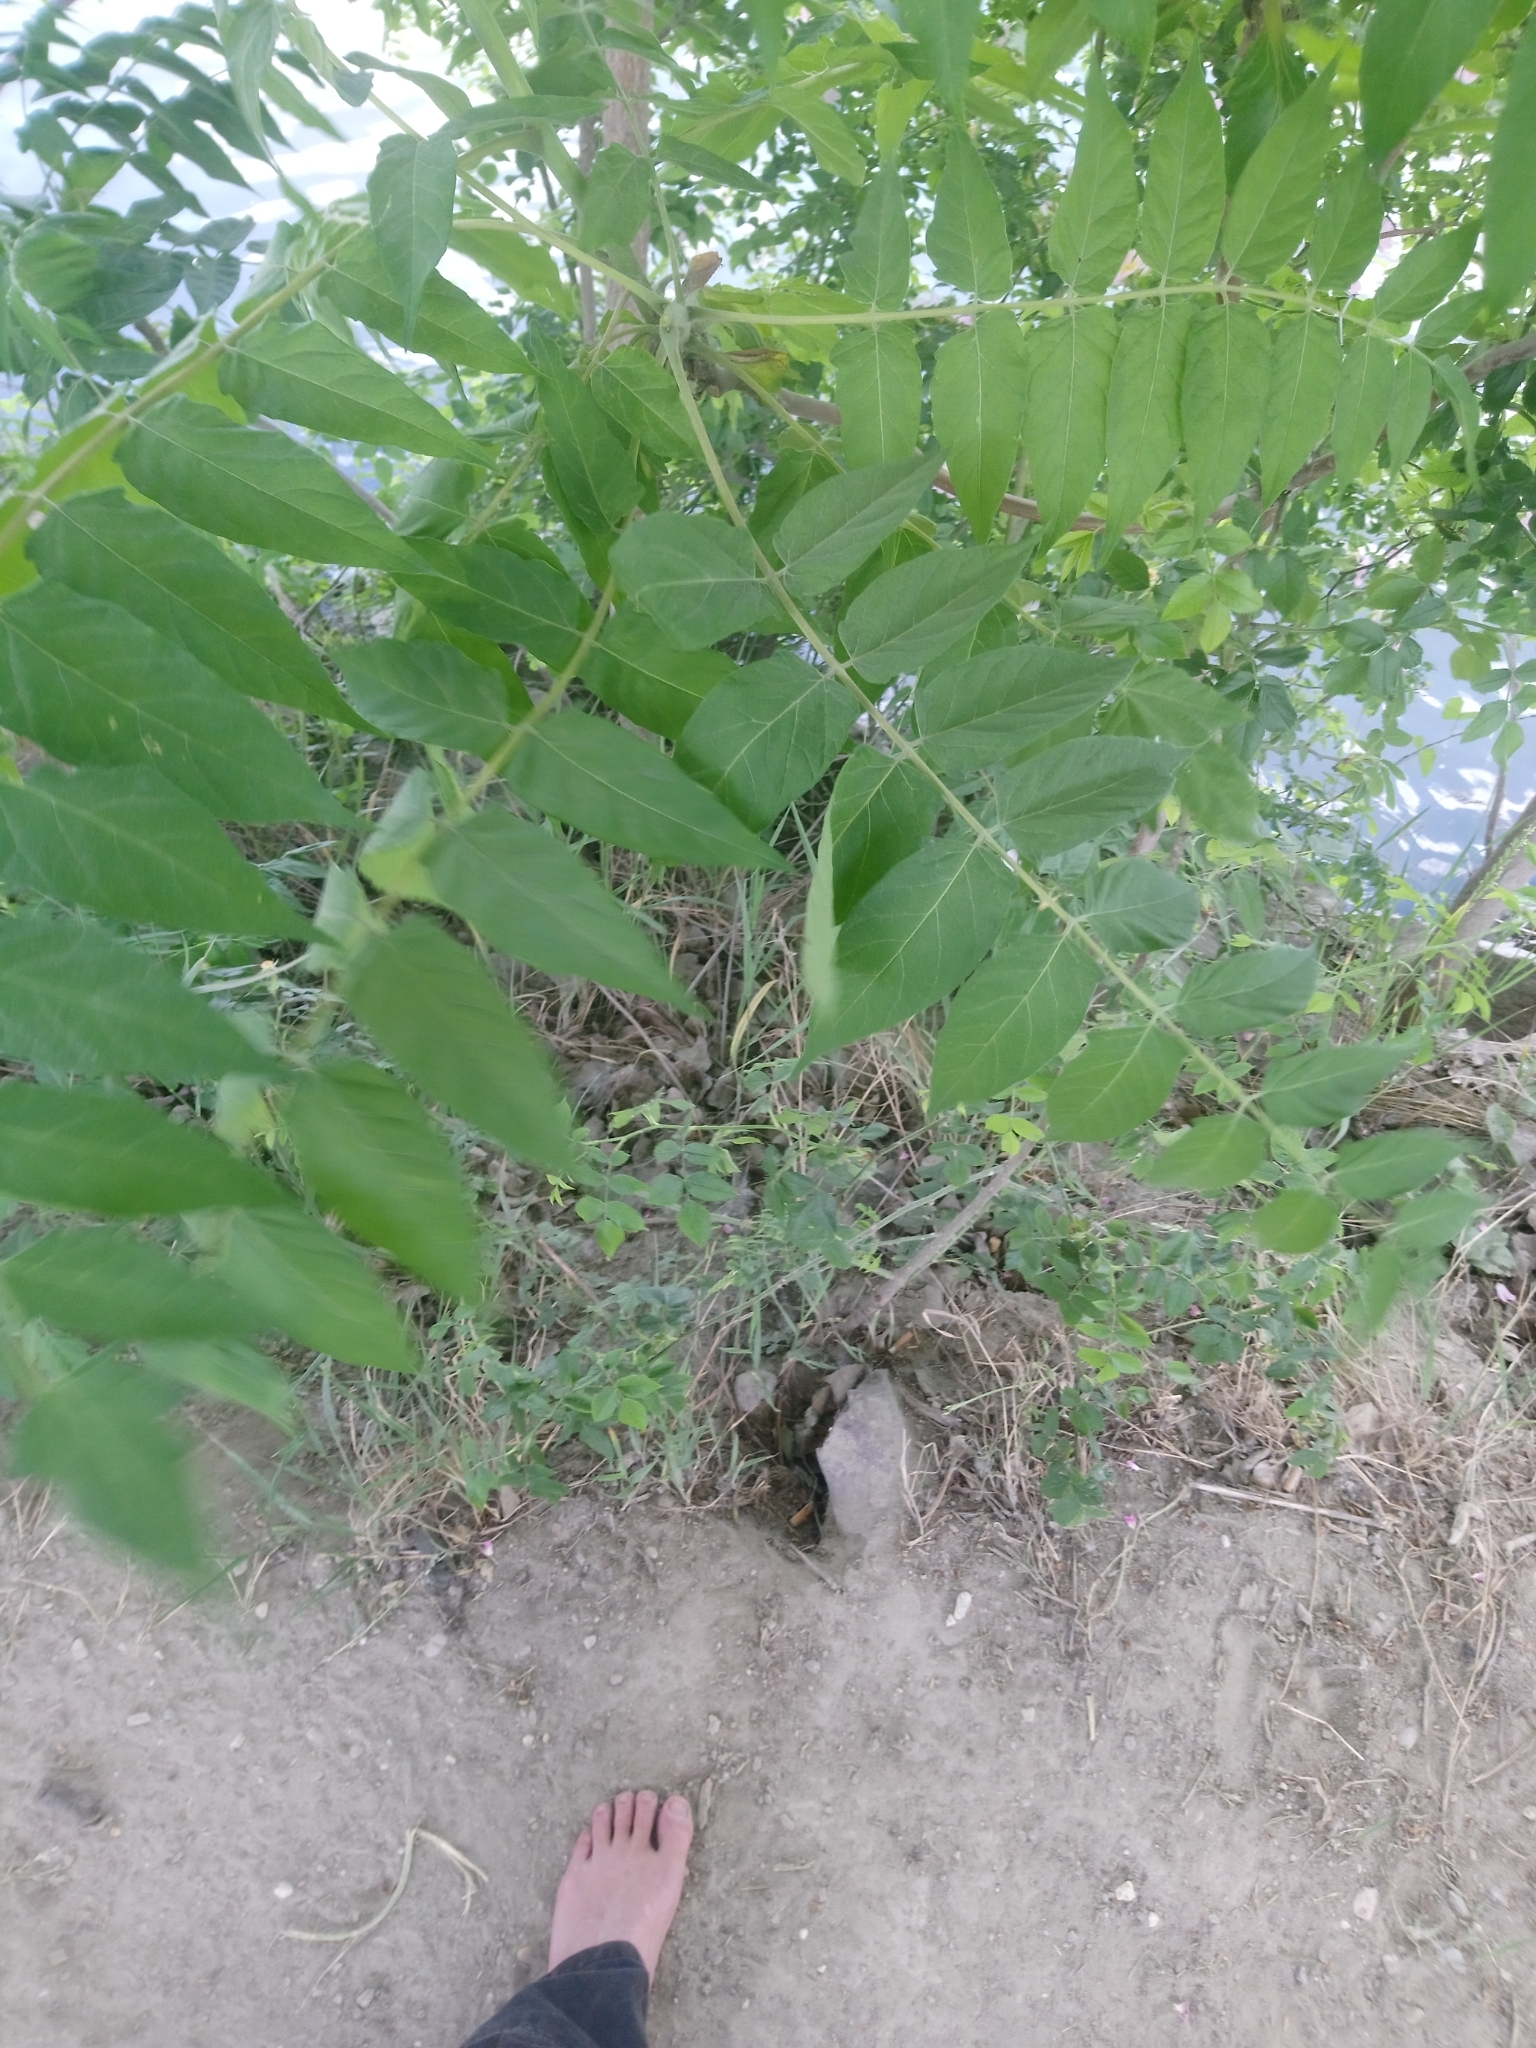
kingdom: Plantae
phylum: Tracheophyta
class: Magnoliopsida
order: Sapindales
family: Simaroubaceae
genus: Ailanthus
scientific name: Ailanthus altissima
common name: Tree-of-heaven
